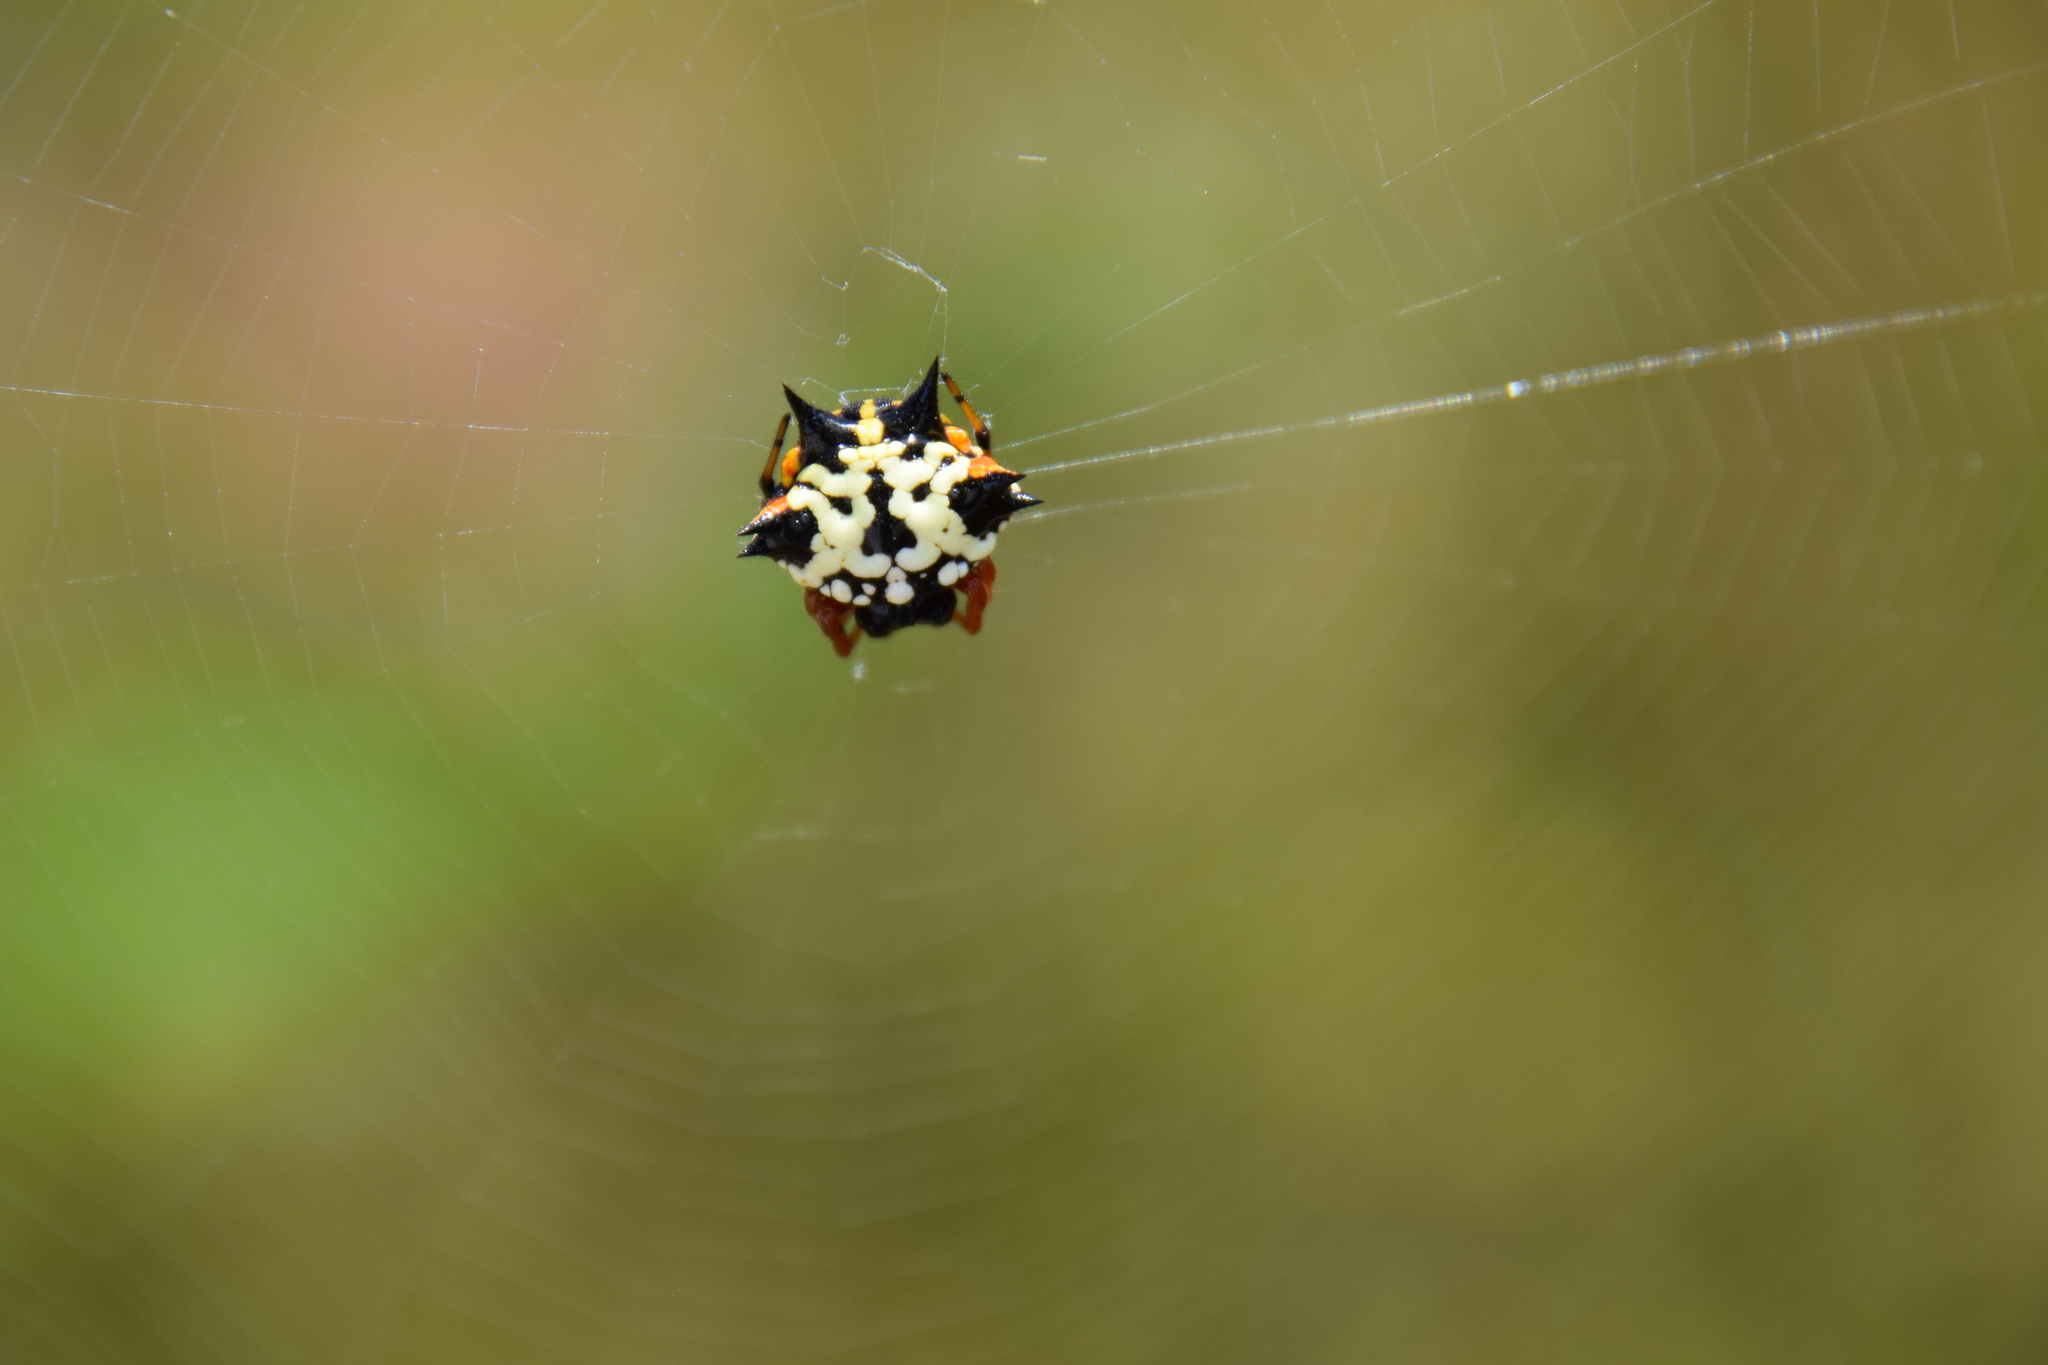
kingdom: Animalia
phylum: Arthropoda
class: Arachnida
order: Araneae
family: Araneidae
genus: Austracantha
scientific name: Austracantha minax
